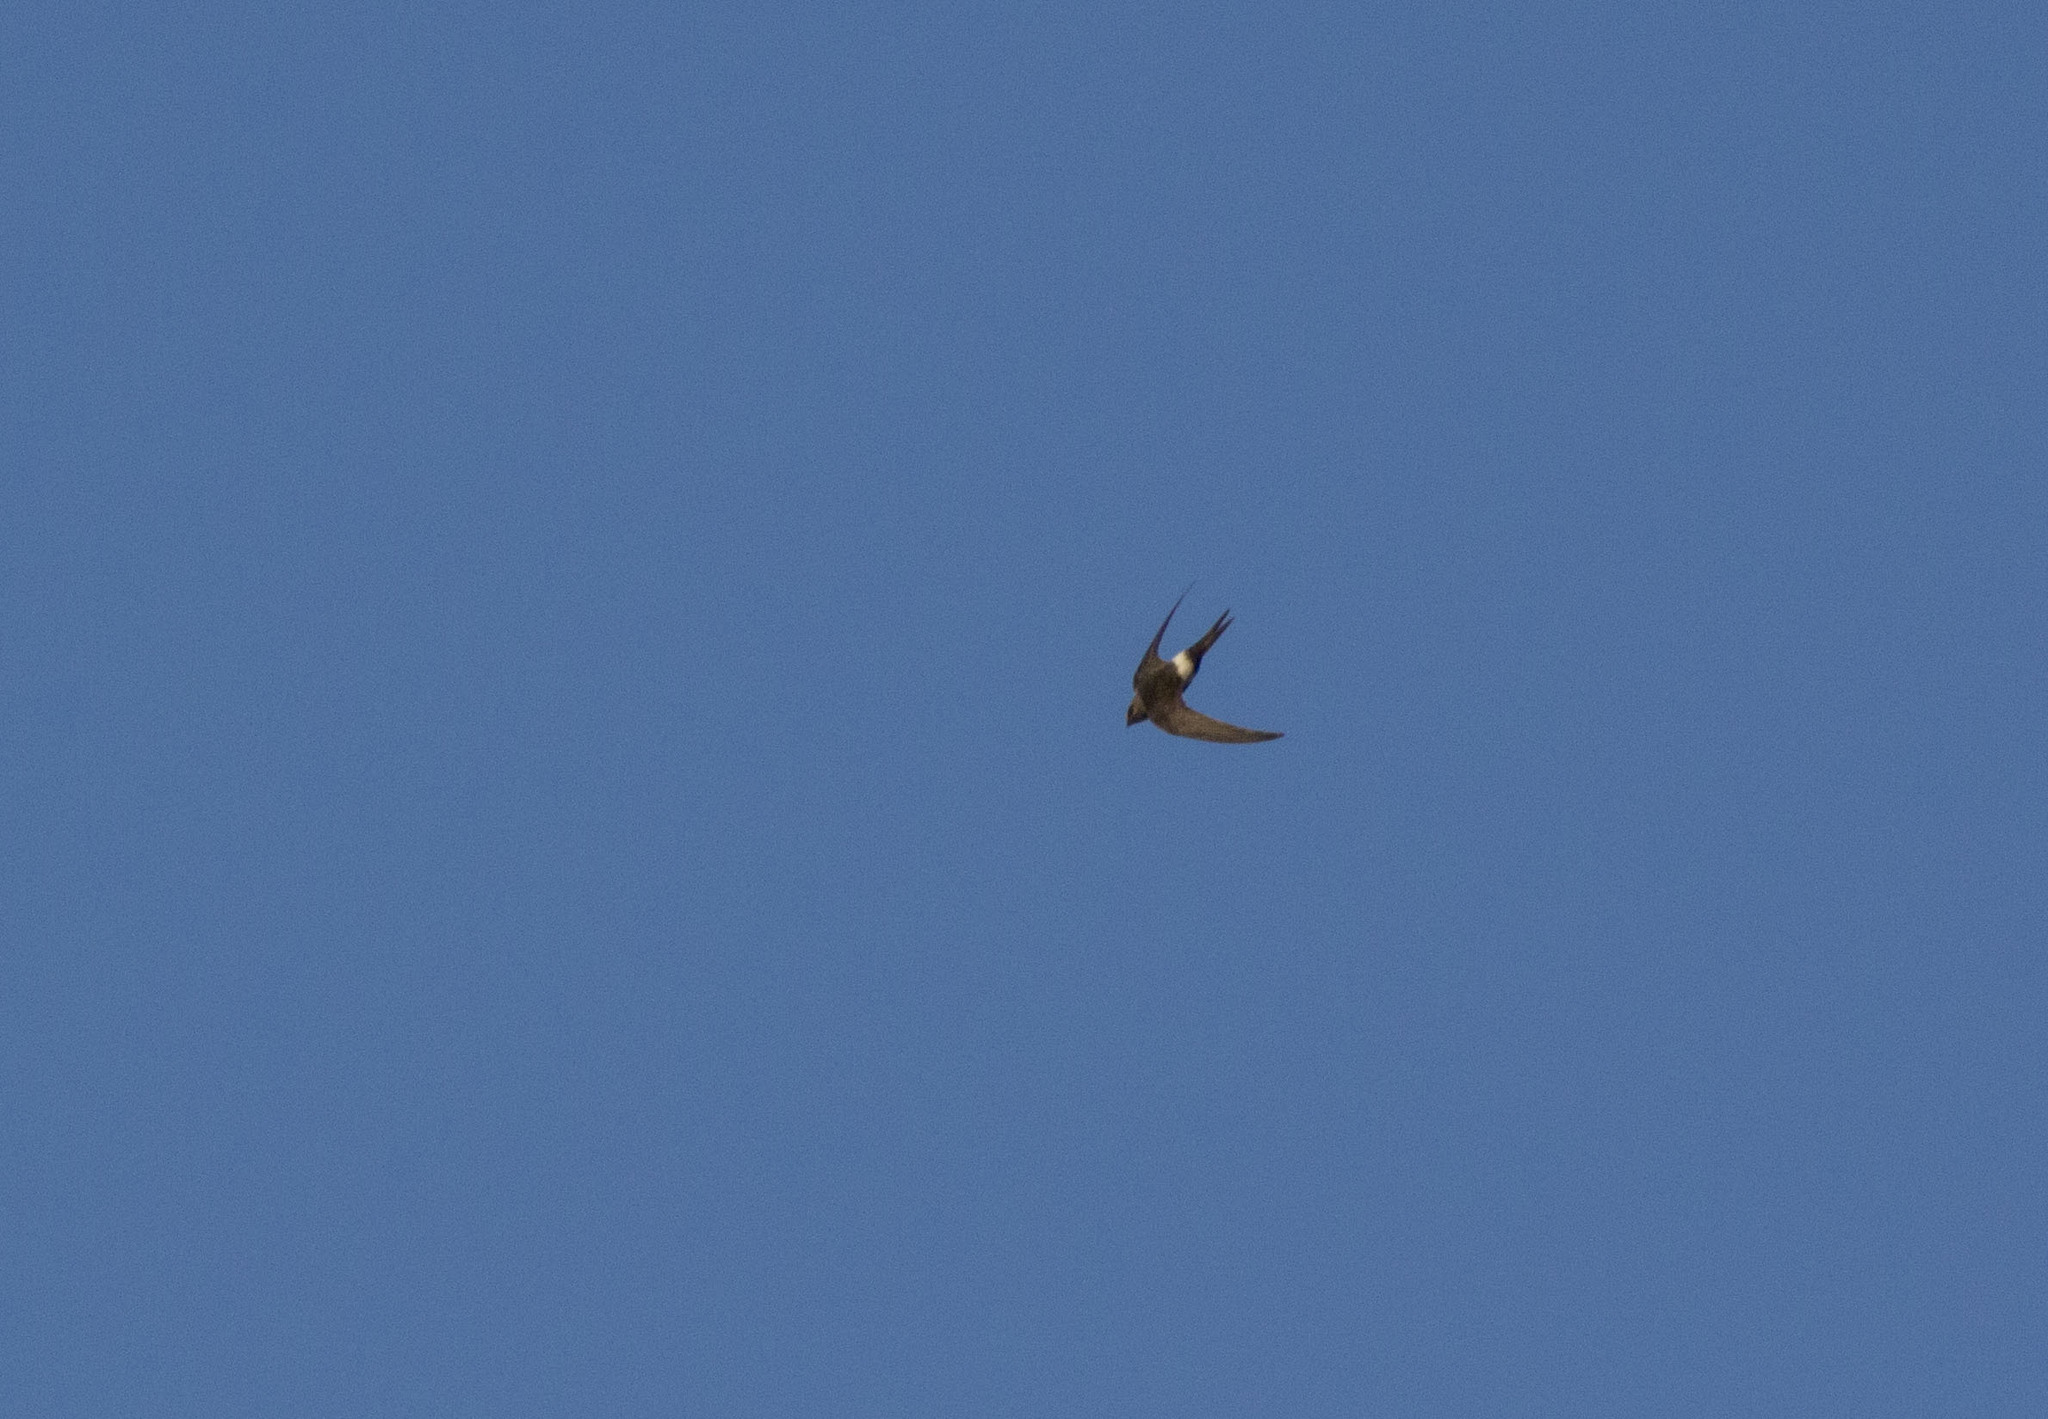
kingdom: Animalia
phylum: Chordata
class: Aves
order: Apodiformes
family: Apodidae
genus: Apus
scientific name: Apus pacificus
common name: Pacific swift
